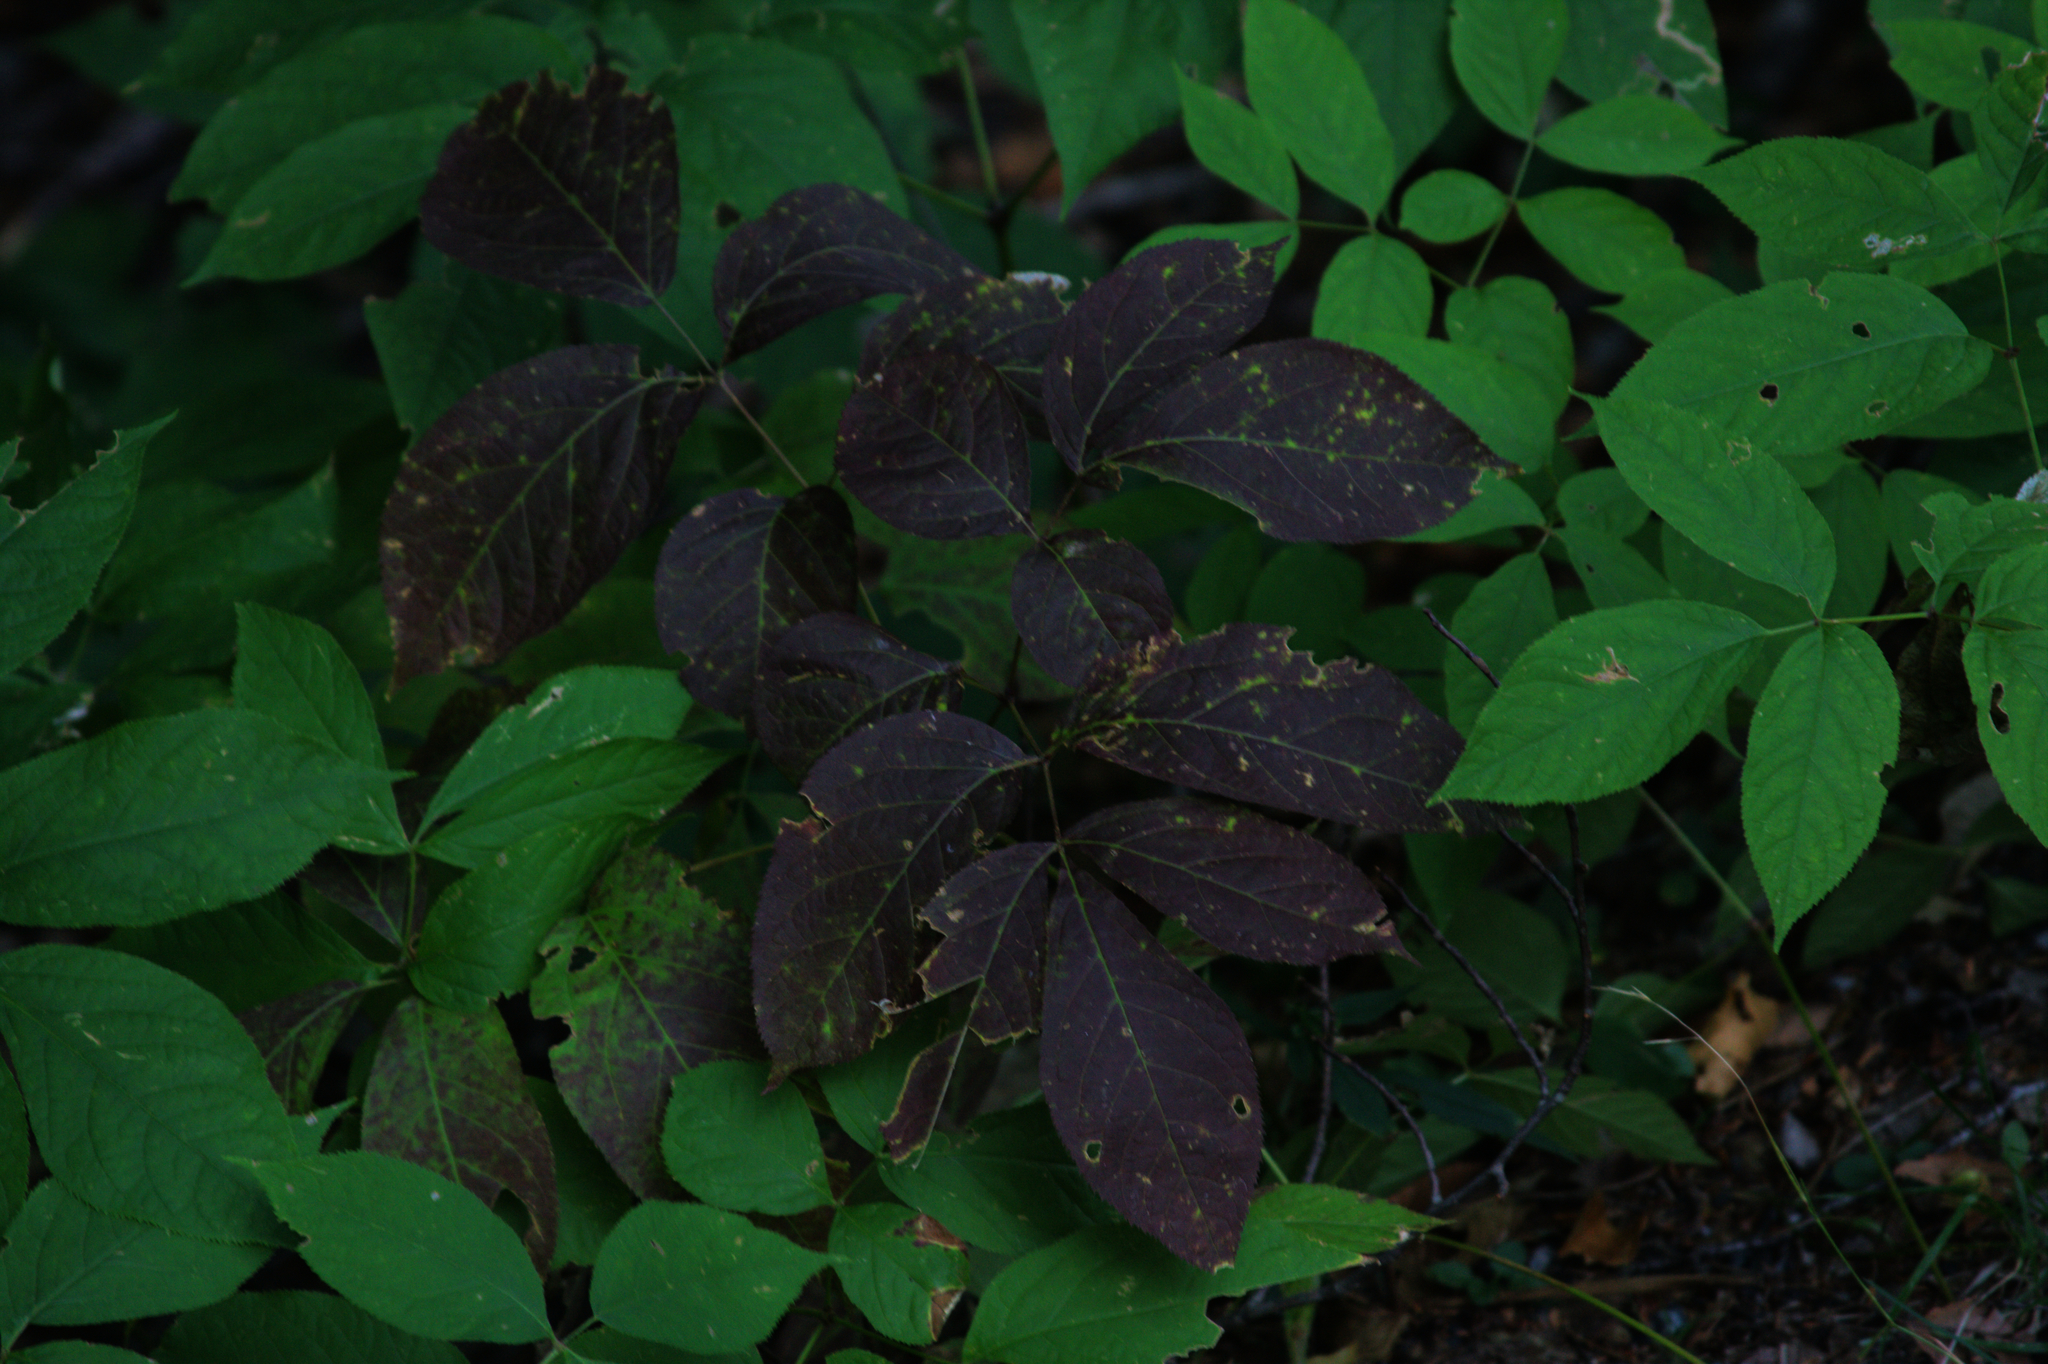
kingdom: Plantae
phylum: Tracheophyta
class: Magnoliopsida
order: Apiales
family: Araliaceae
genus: Aralia
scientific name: Aralia nudicaulis
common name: Wild sarsaparilla
